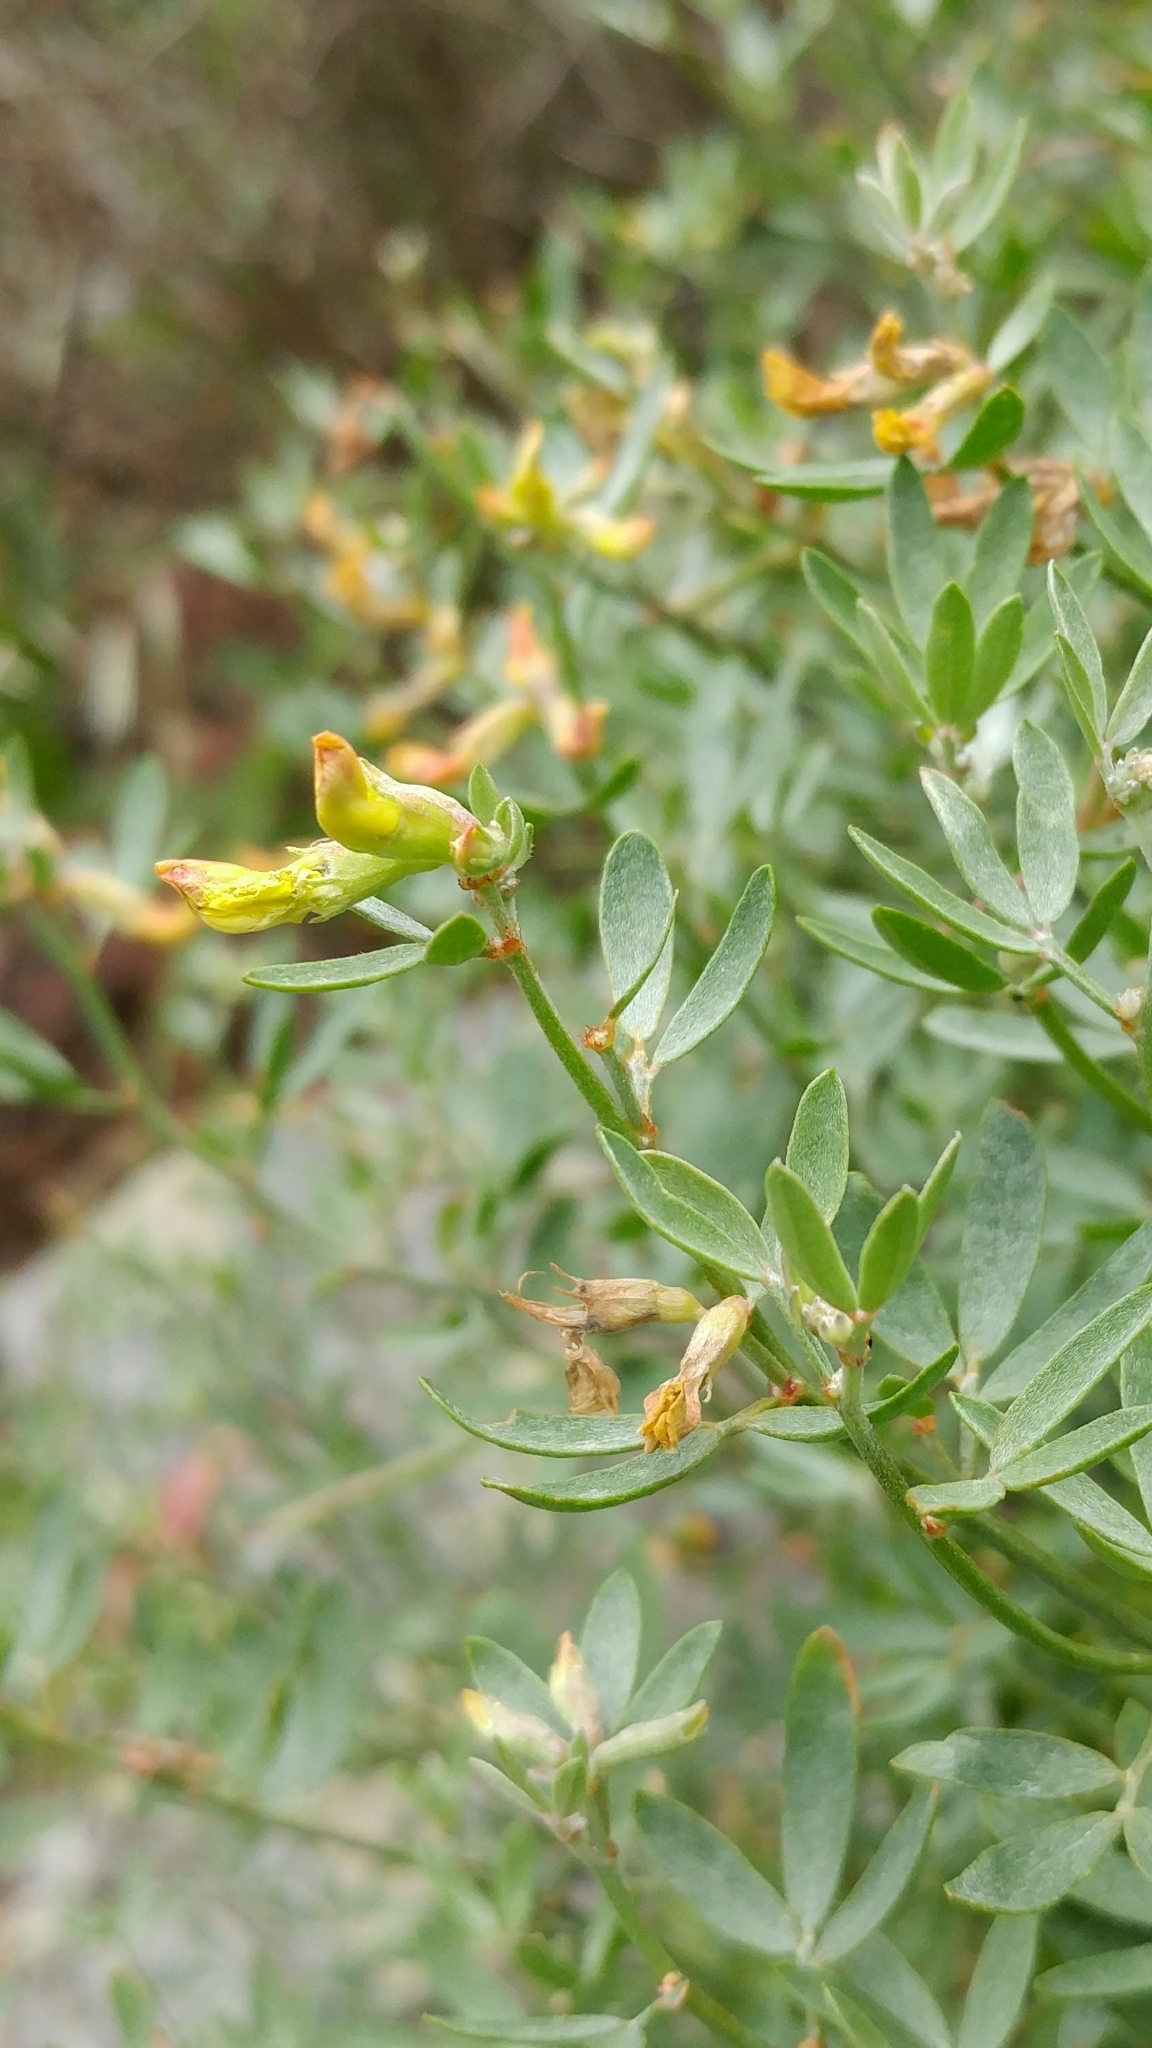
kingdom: Plantae
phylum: Tracheophyta
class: Magnoliopsida
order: Fabales
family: Fabaceae
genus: Acmispon
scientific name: Acmispon dendroideus
